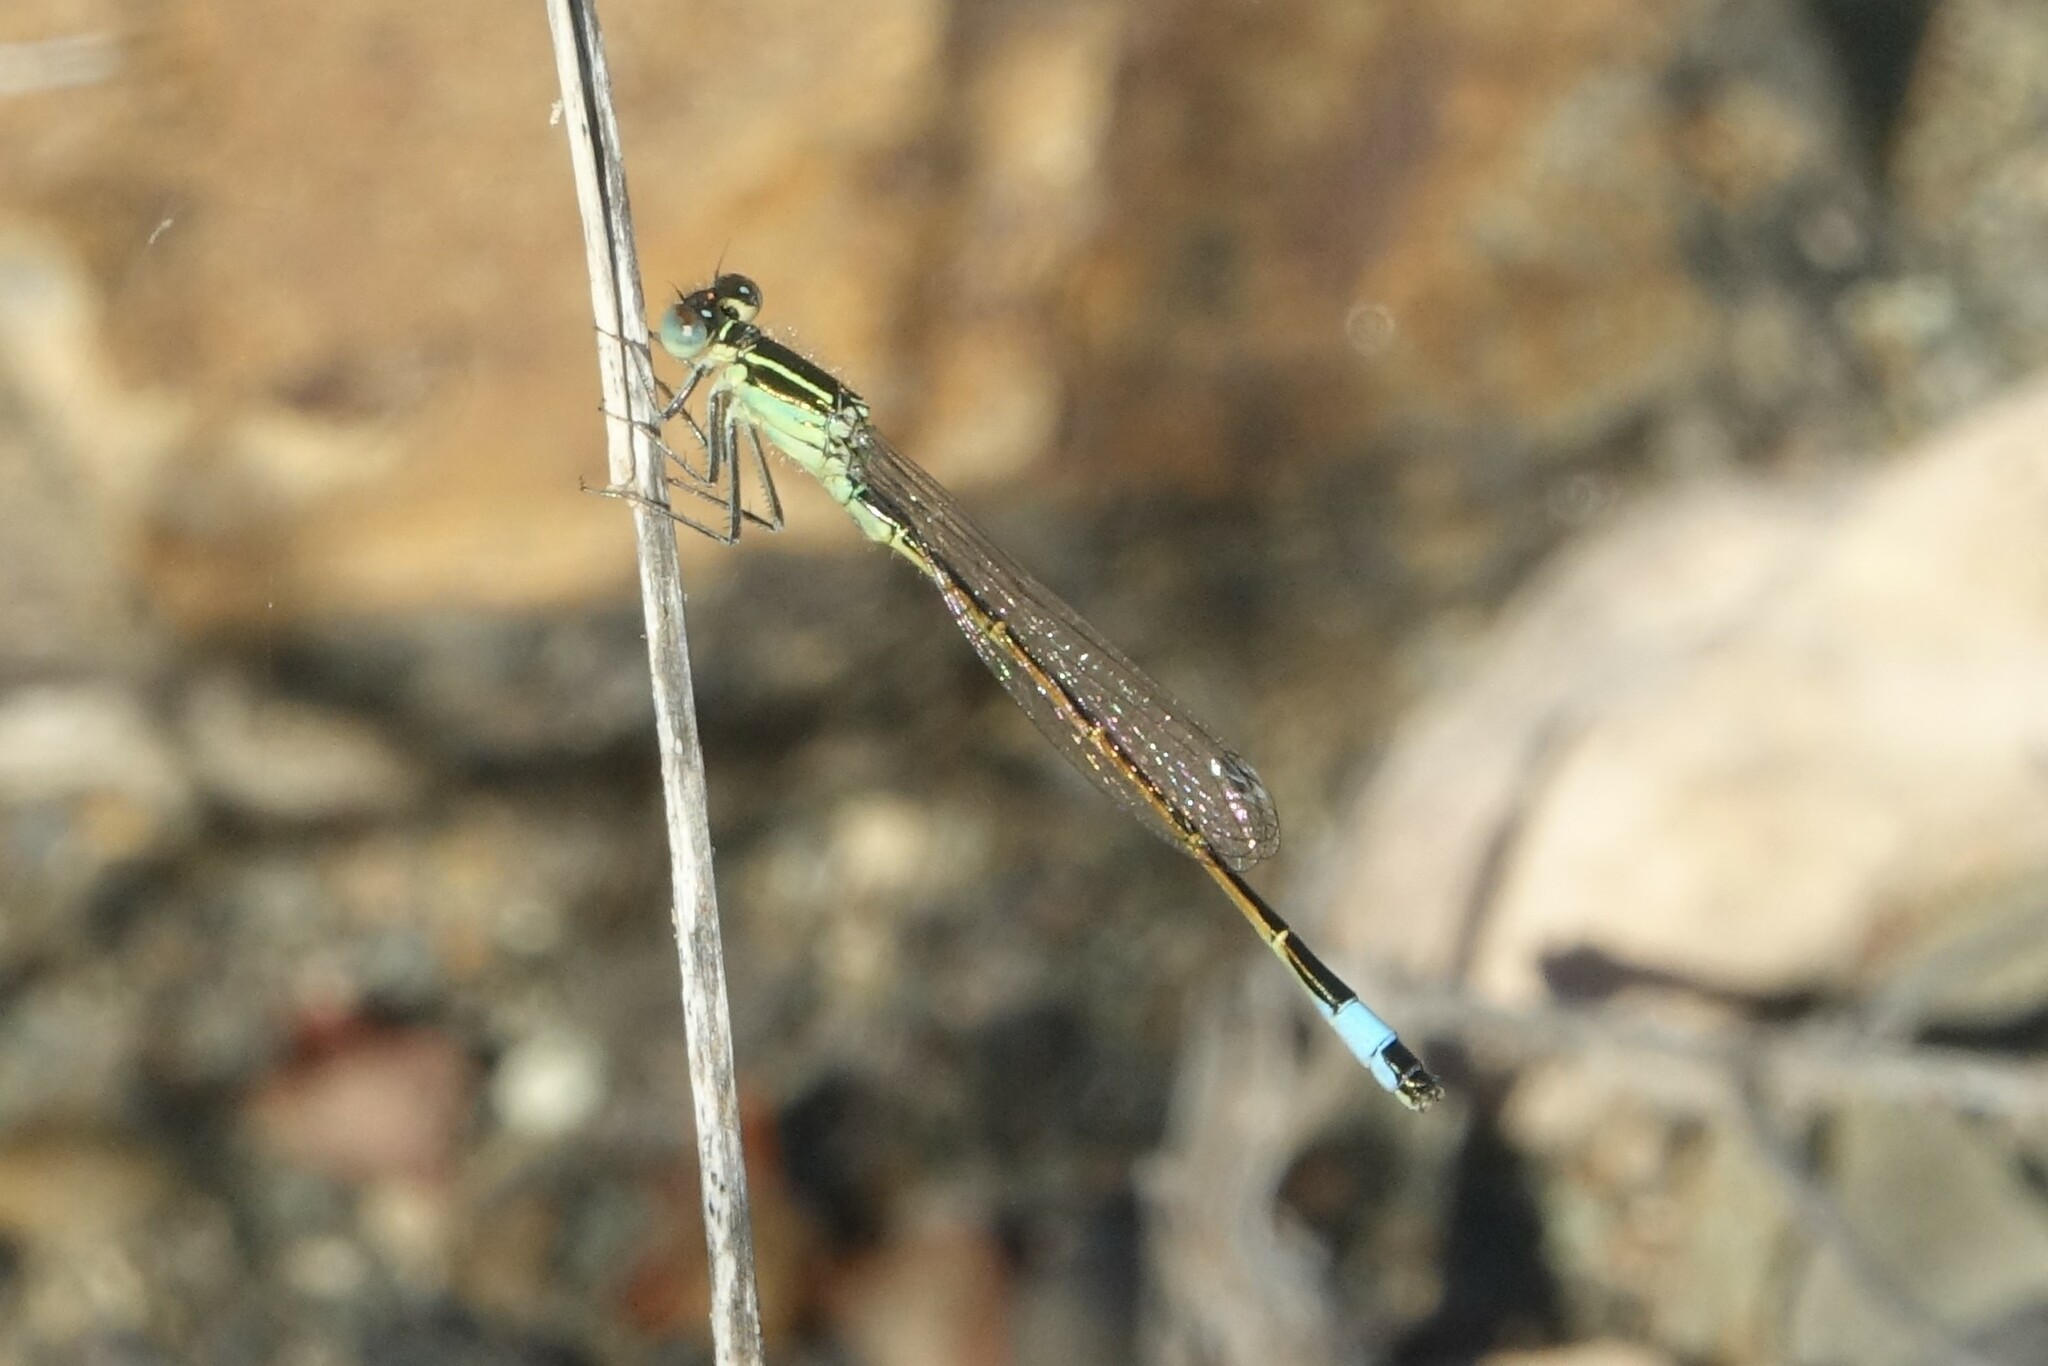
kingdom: Animalia
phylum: Arthropoda
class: Insecta
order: Odonata
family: Coenagrionidae
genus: Ischnura
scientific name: Ischnura saharensis
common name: Sahara bluetail
